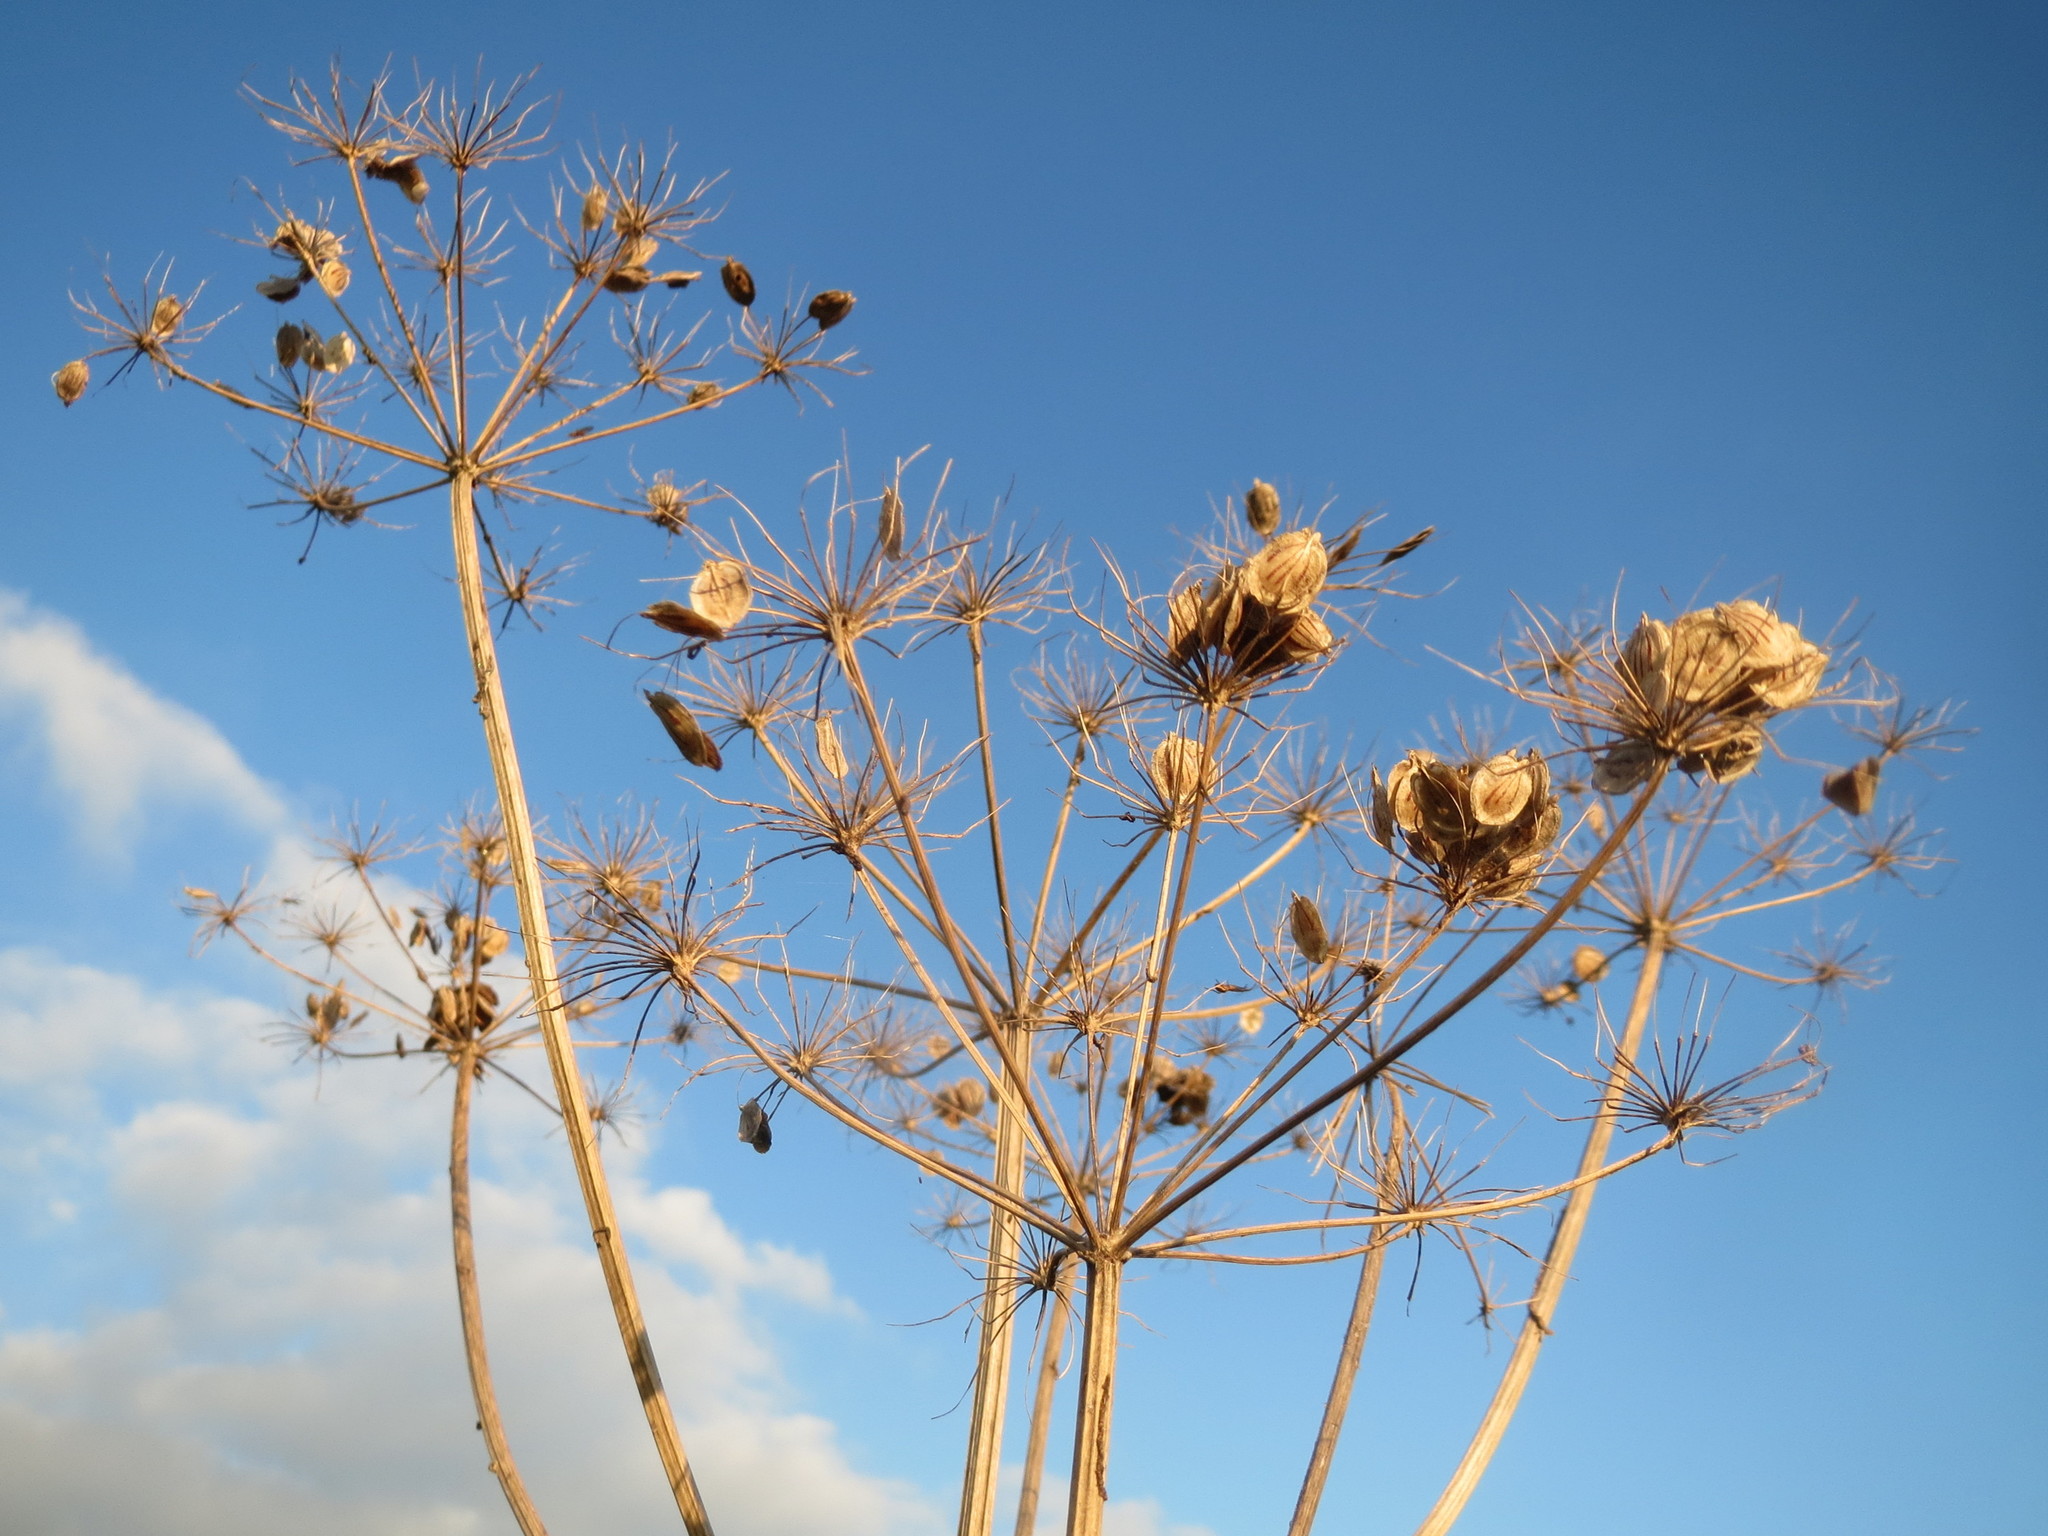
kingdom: Plantae
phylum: Tracheophyta
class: Magnoliopsida
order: Apiales
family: Apiaceae
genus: Heracleum
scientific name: Heracleum sphondylium
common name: Hogweed
